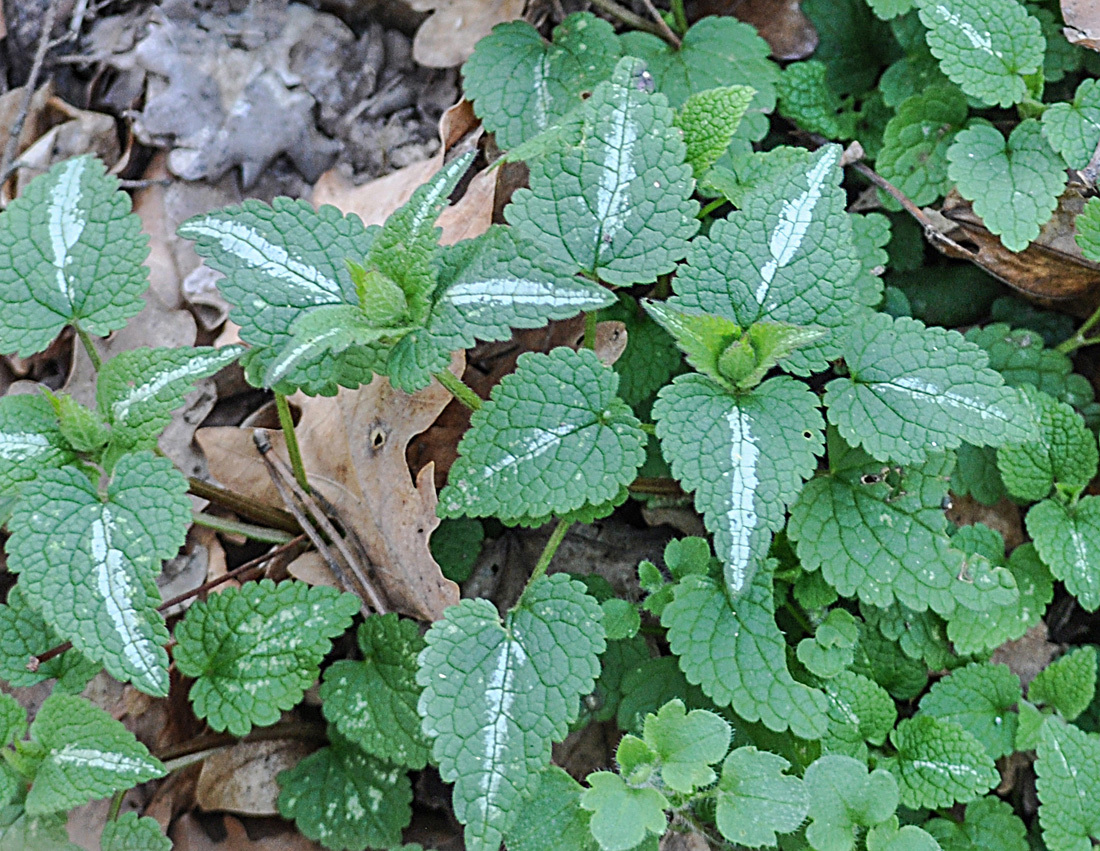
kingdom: Plantae
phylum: Tracheophyta
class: Magnoliopsida
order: Lamiales
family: Lamiaceae
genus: Lamium
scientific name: Lamium maculatum
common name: Spotted dead-nettle
